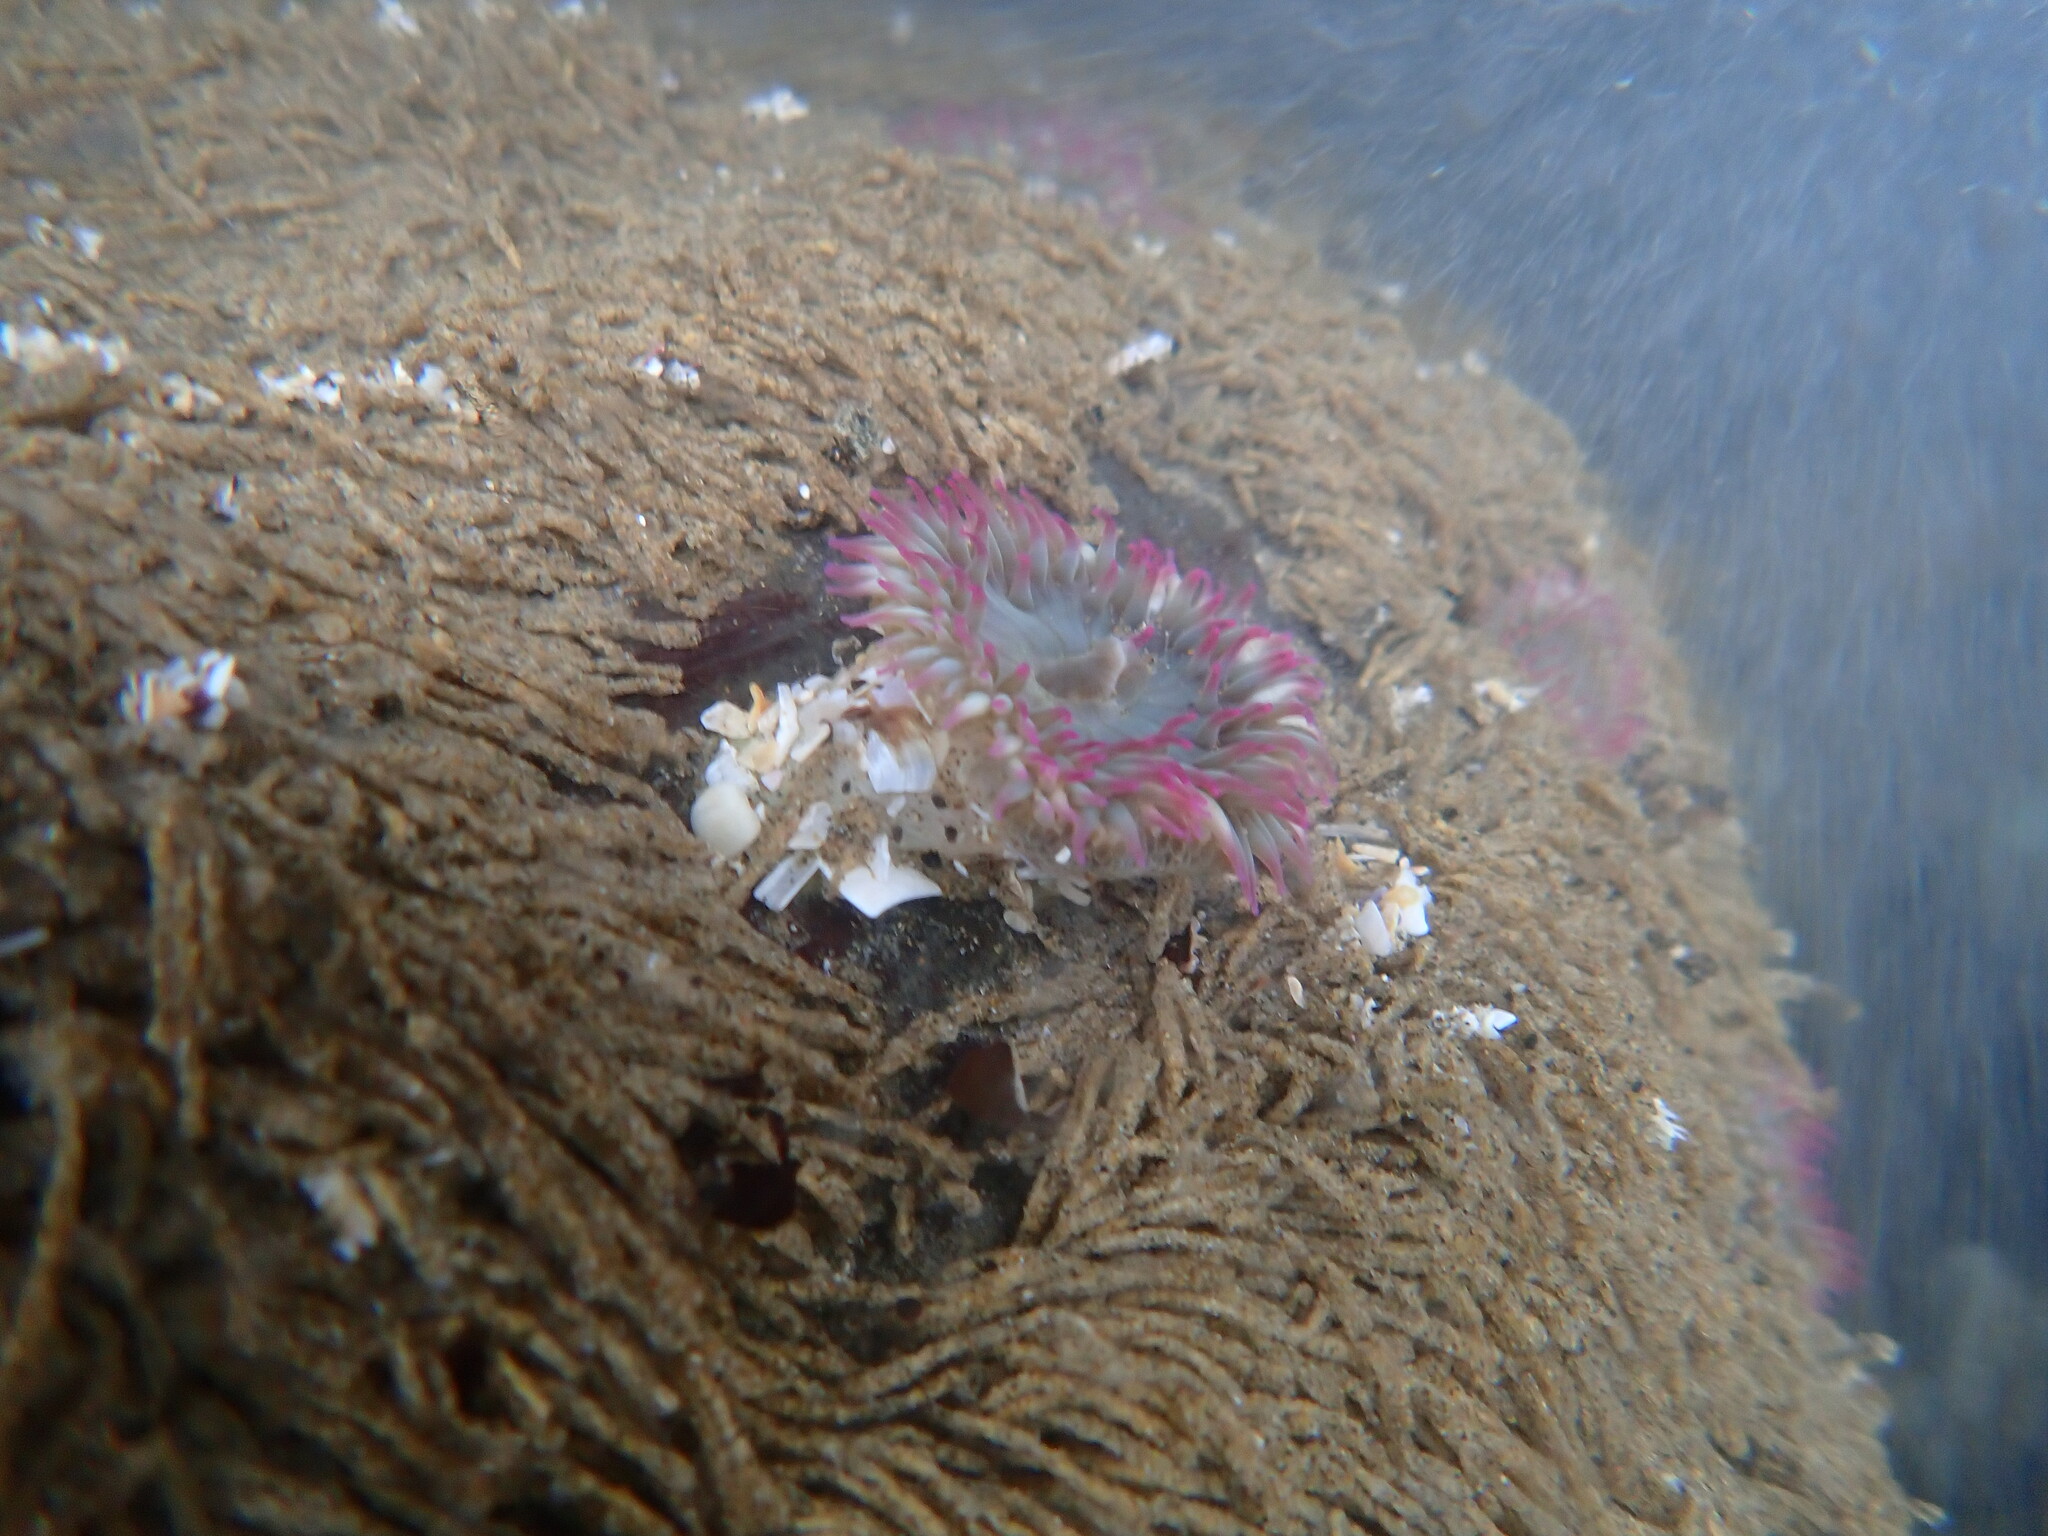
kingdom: Animalia
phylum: Cnidaria
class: Anthozoa
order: Actiniaria
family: Actiniidae
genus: Anthopleura
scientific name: Anthopleura elegantissima
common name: Clonal anemone
